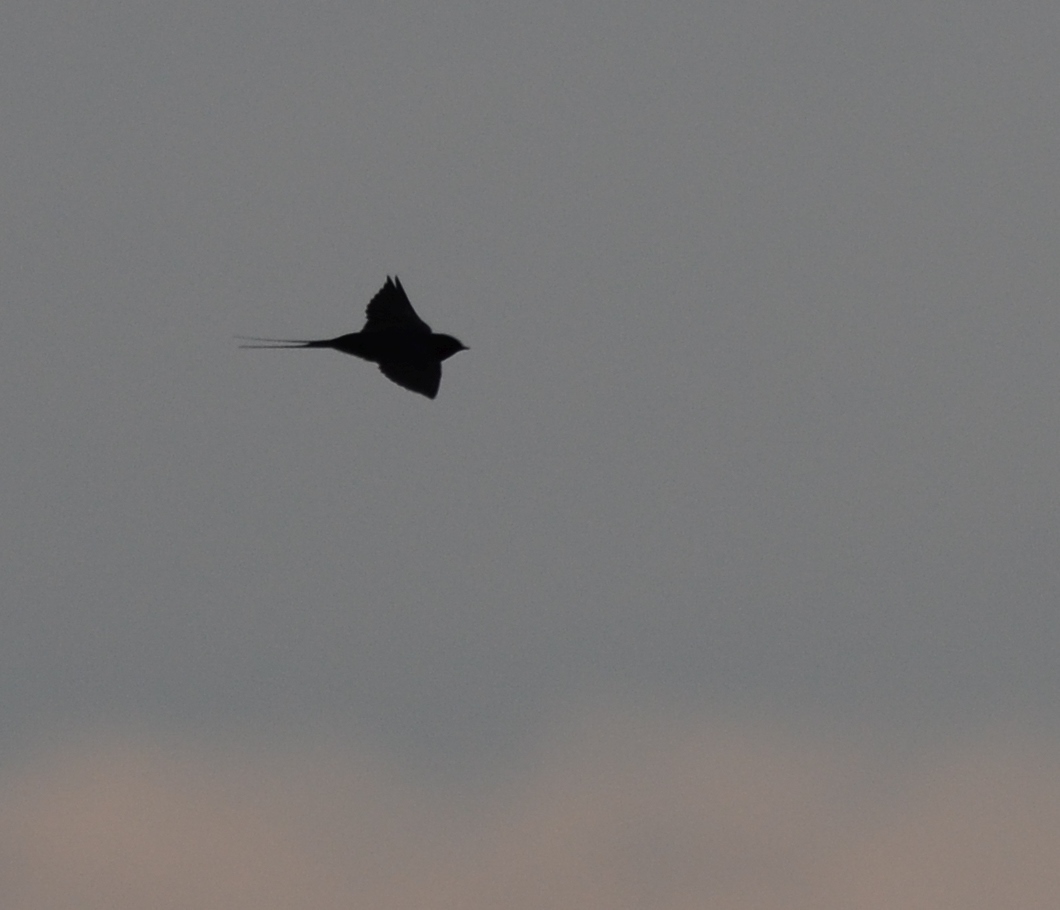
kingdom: Animalia
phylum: Chordata
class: Aves
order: Passeriformes
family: Hirundinidae
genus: Hirundo
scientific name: Hirundo rustica
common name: Barn swallow
